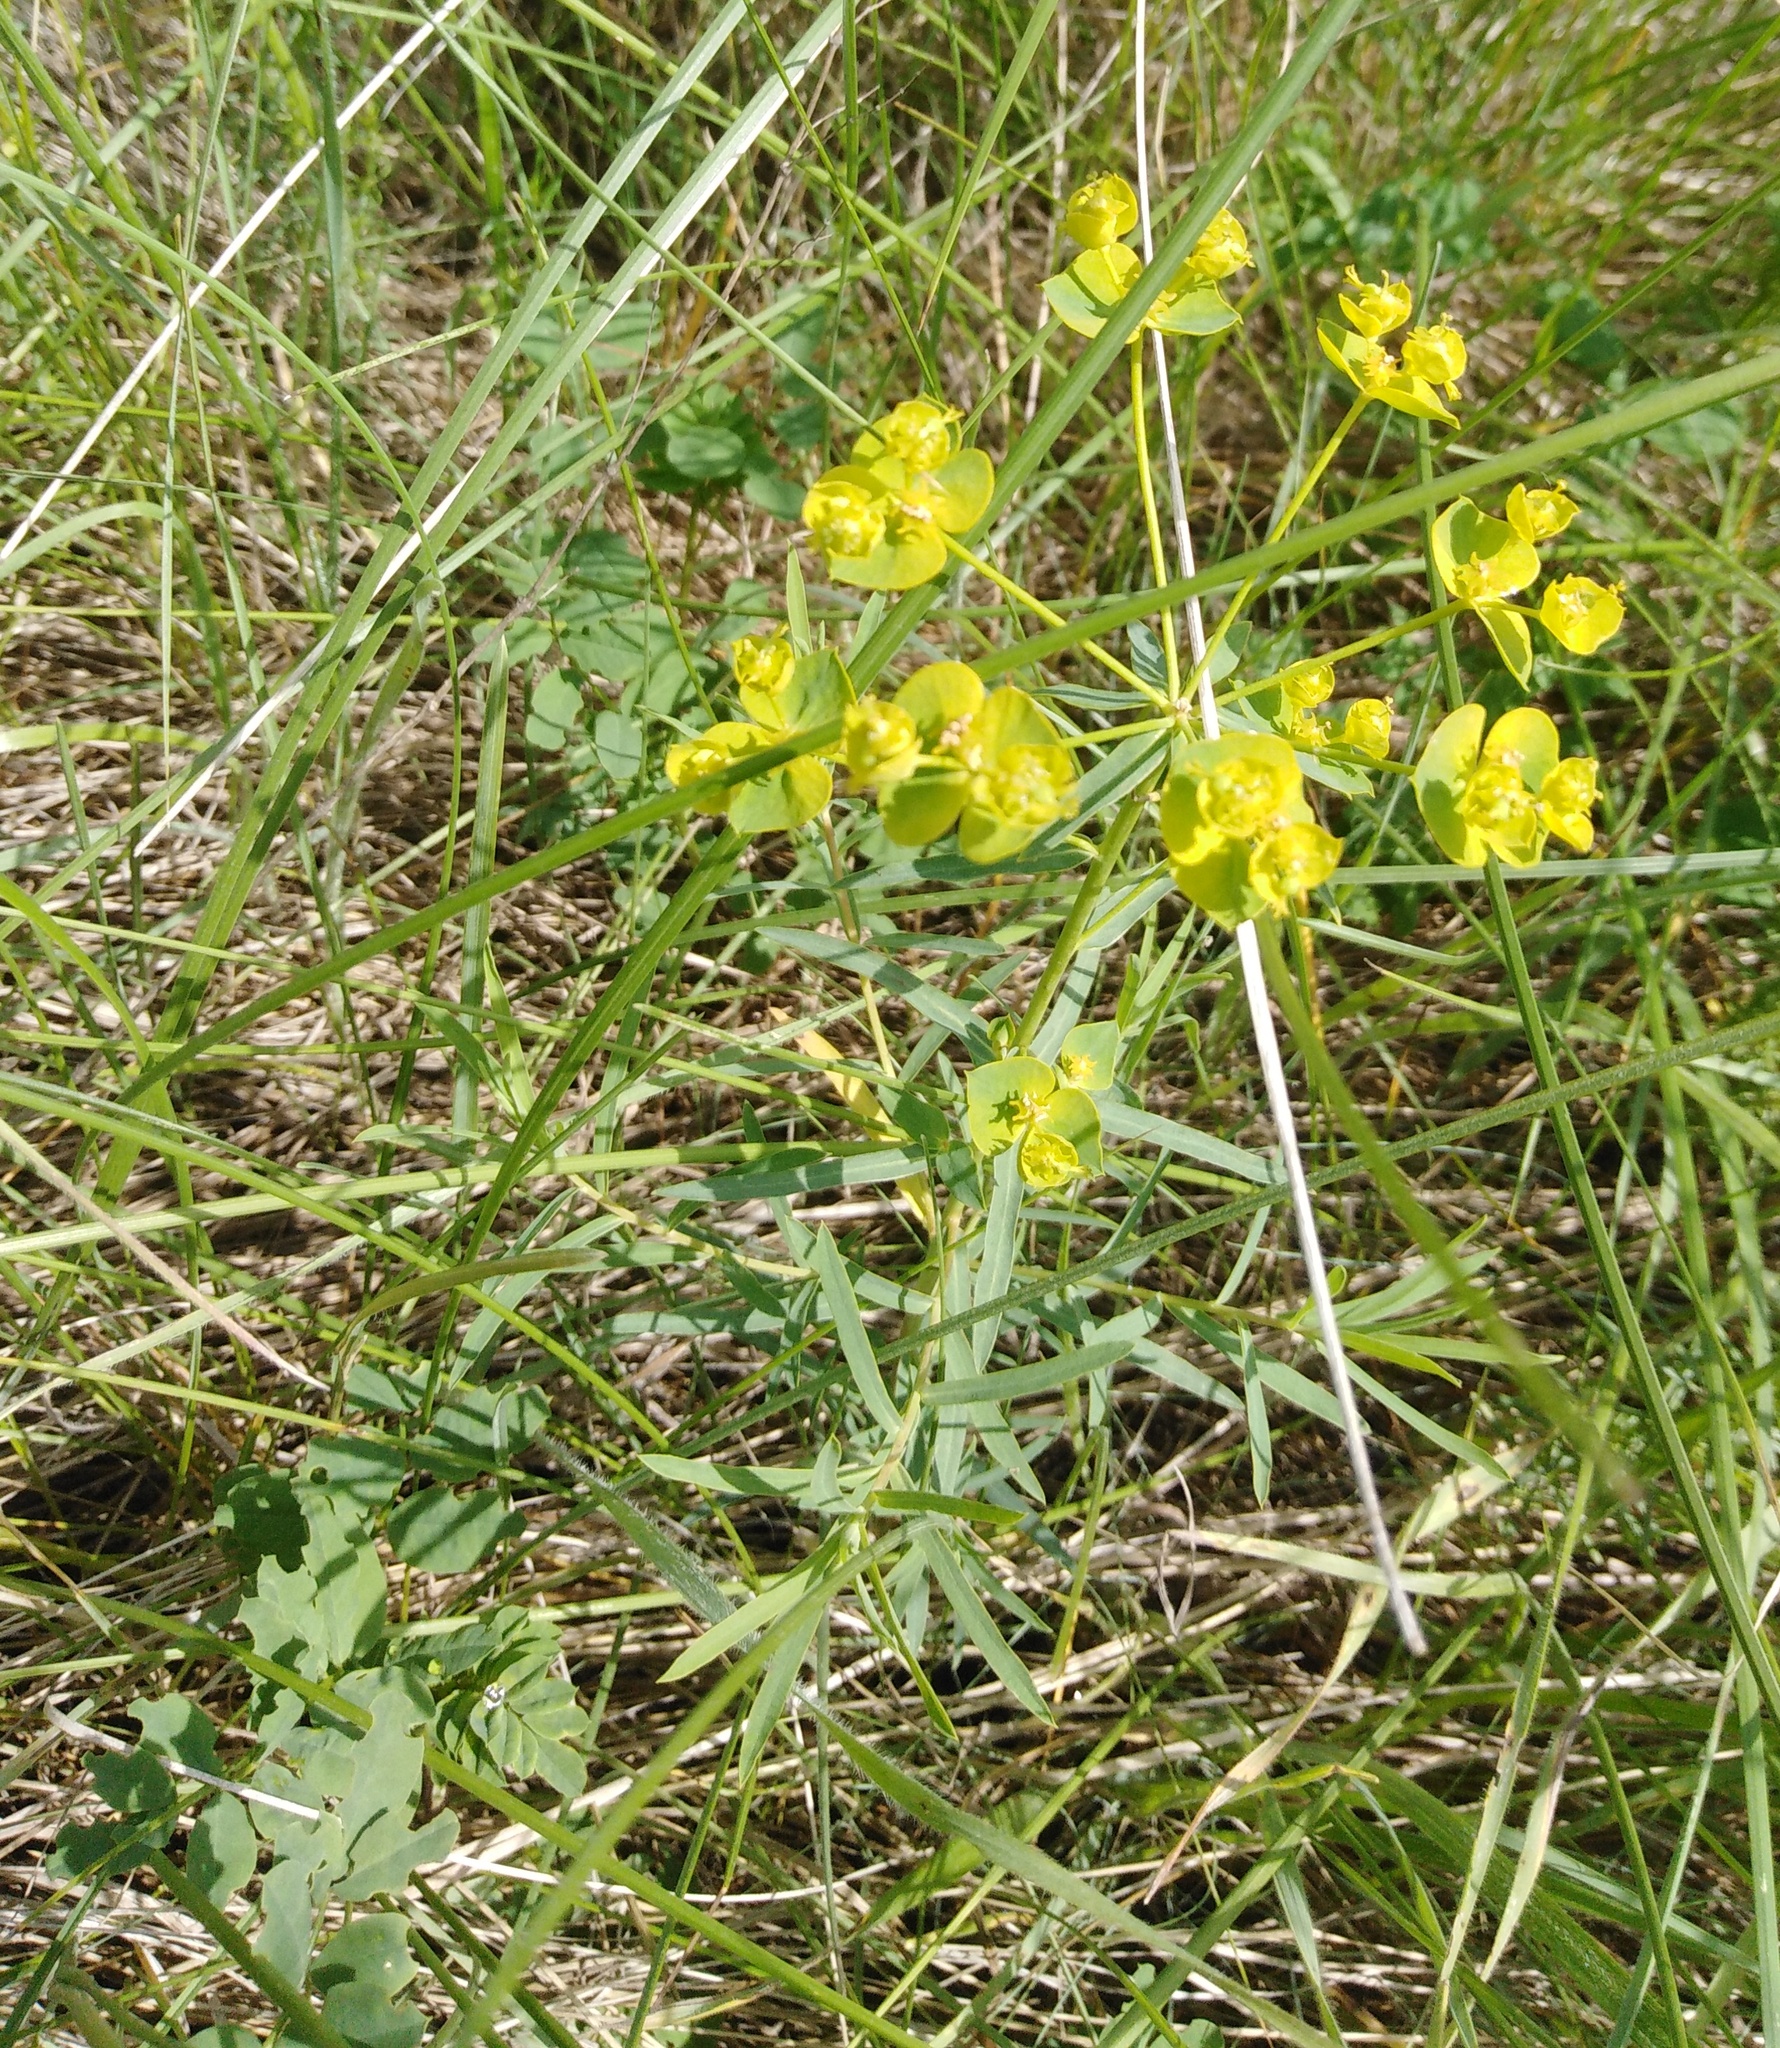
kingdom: Plantae
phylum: Tracheophyta
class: Magnoliopsida
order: Malpighiales
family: Euphorbiaceae
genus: Euphorbia
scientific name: Euphorbia virgata
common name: Leafy spurge
